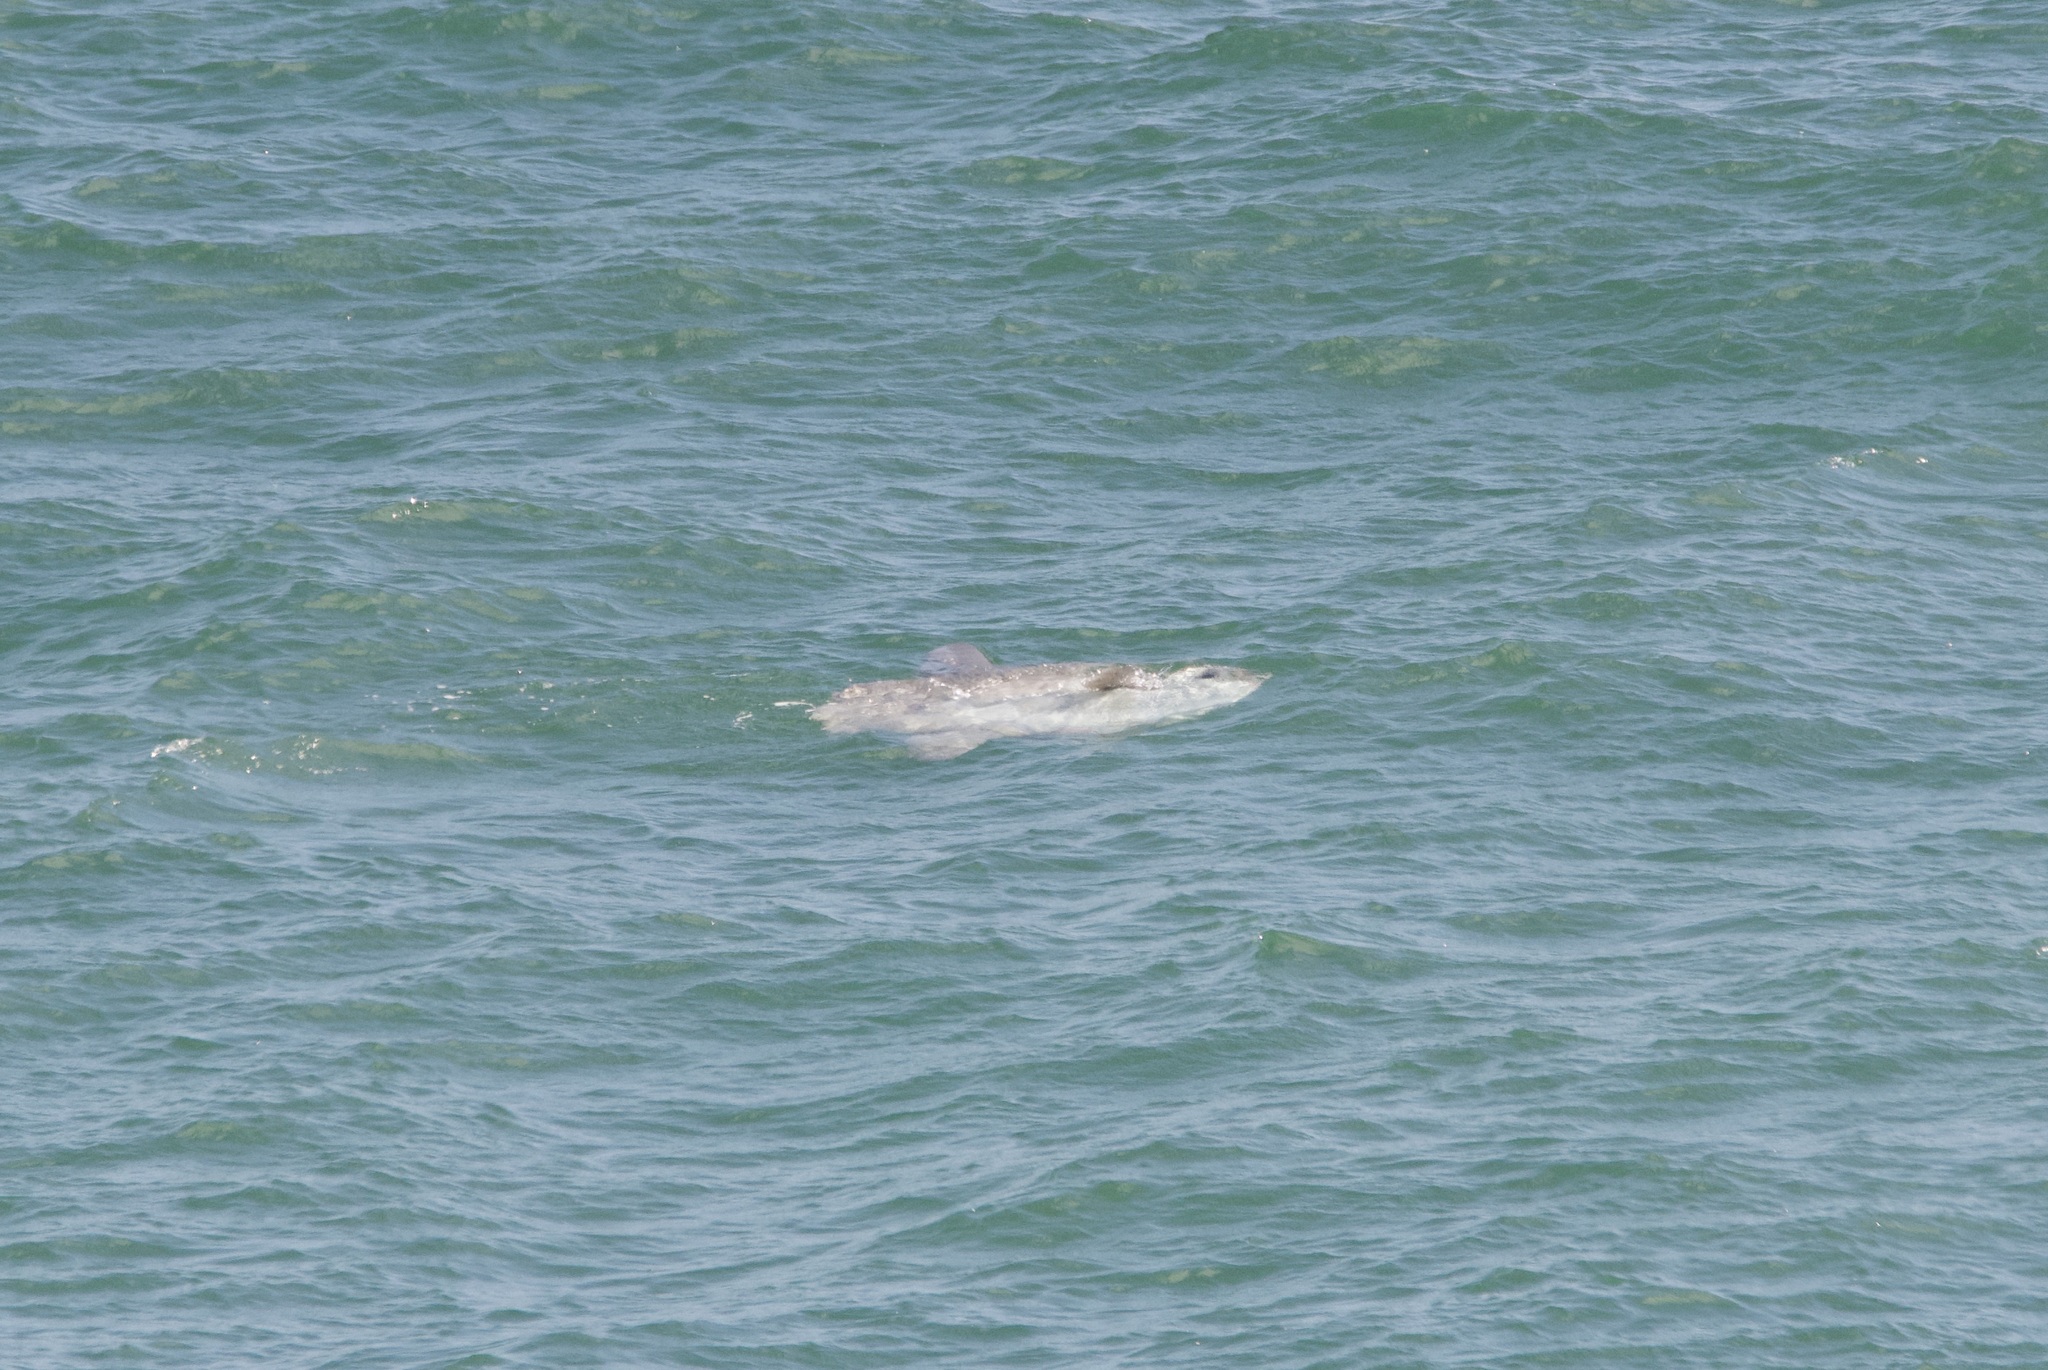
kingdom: Animalia
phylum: Chordata
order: Tetraodontiformes
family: Molidae
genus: Mola
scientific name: Mola mola
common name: Ocean sunfish
